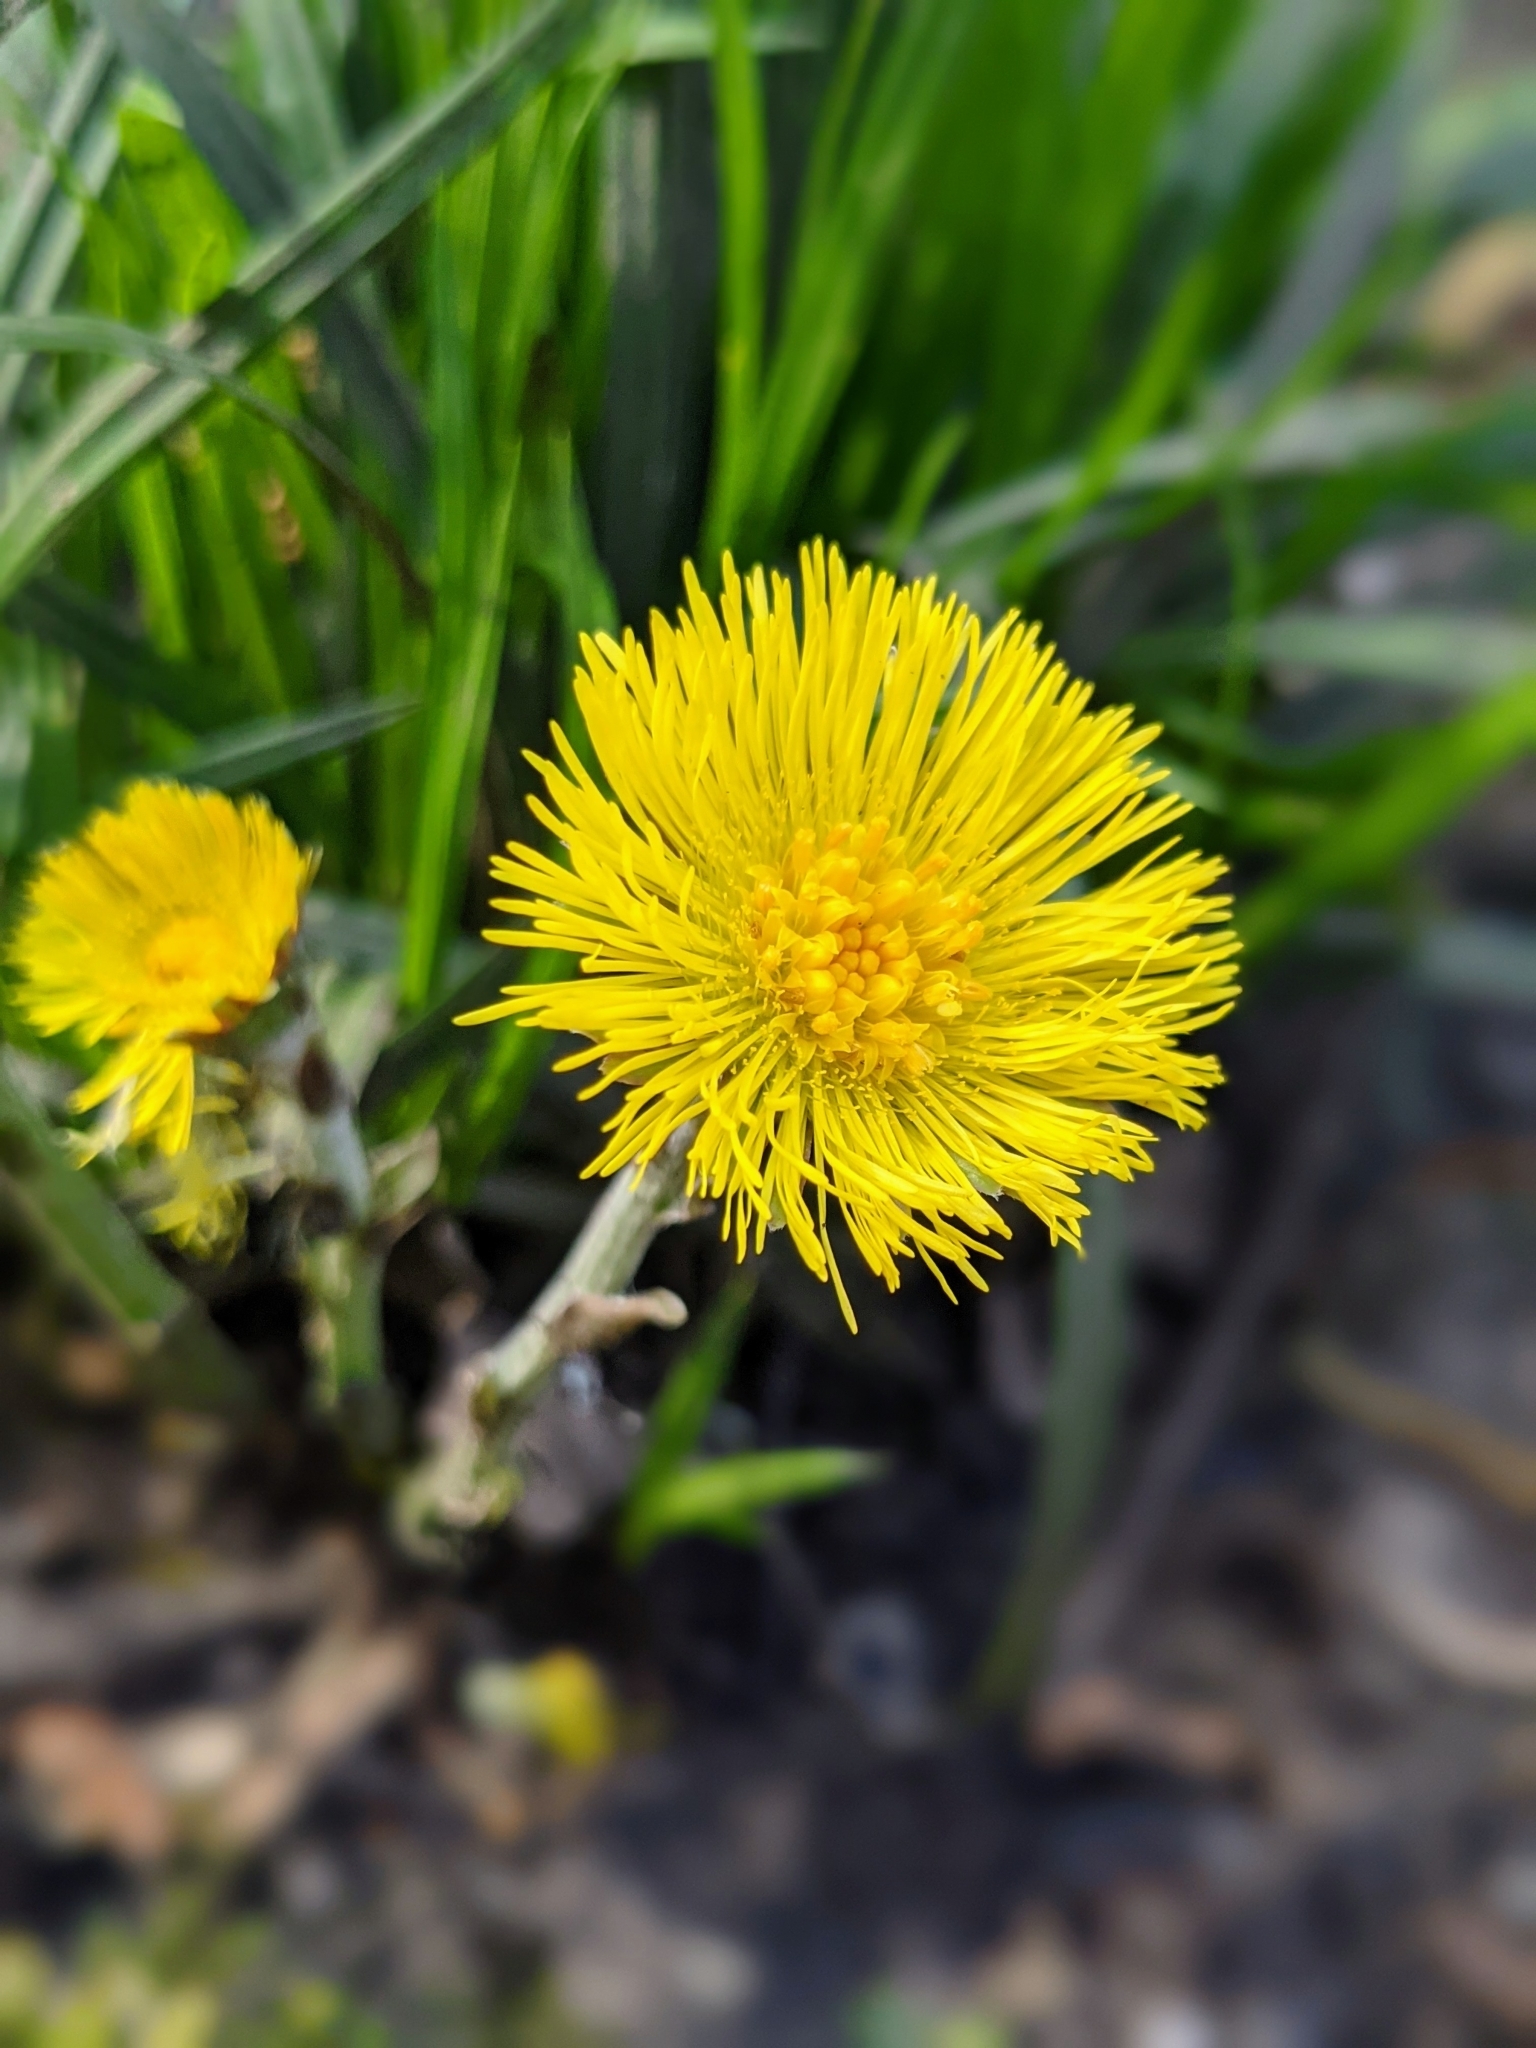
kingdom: Plantae
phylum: Tracheophyta
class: Magnoliopsida
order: Asterales
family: Asteraceae
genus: Tussilago
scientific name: Tussilago farfara
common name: Coltsfoot
